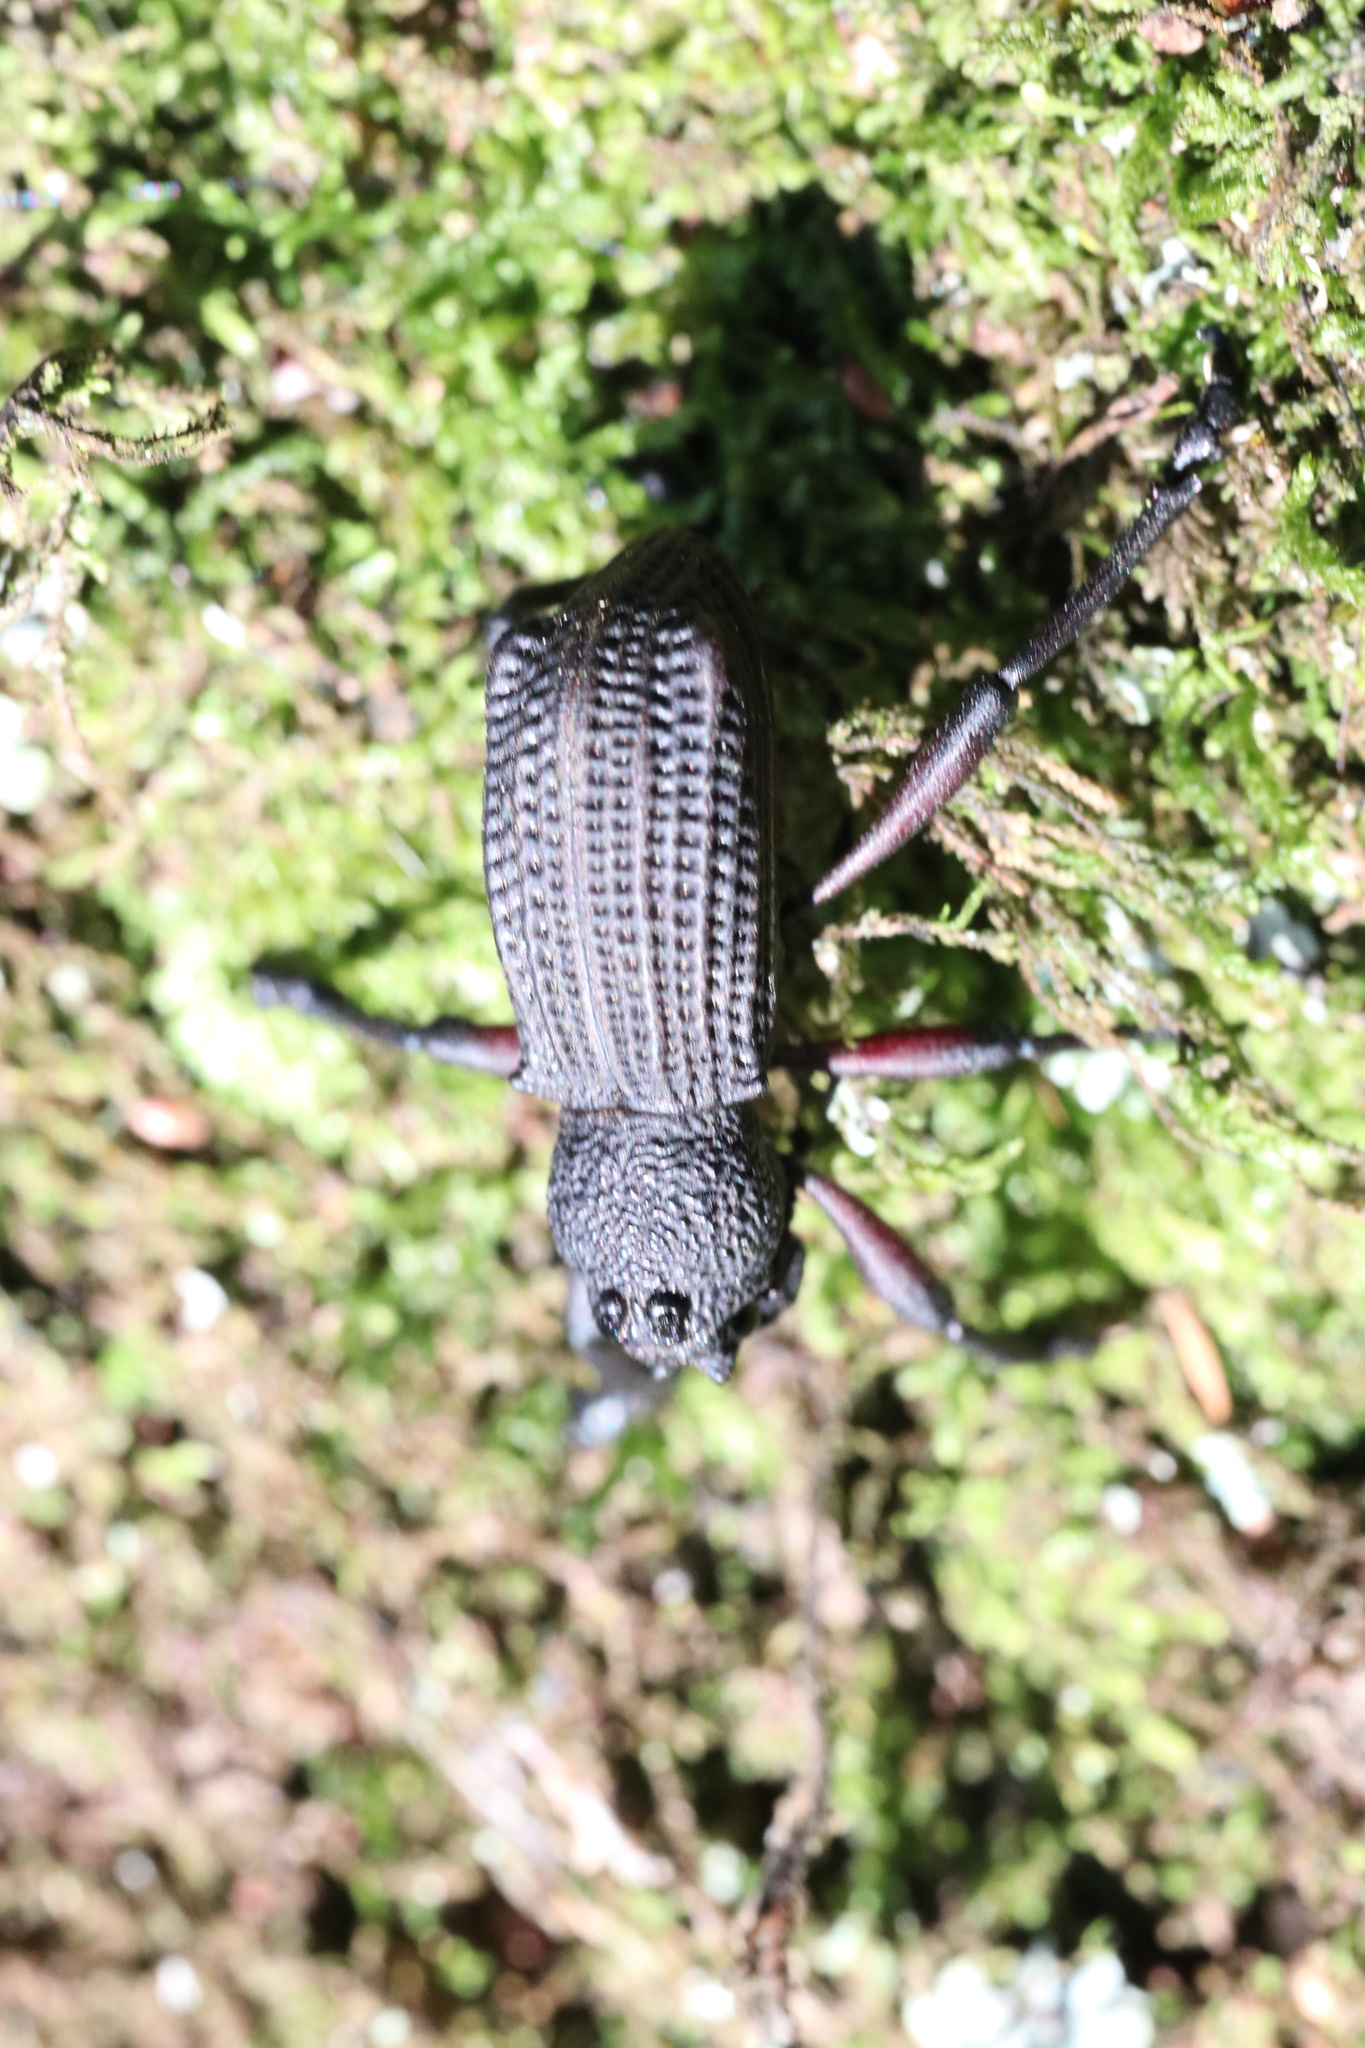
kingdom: Animalia
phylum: Arthropoda
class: Insecta
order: Coleoptera
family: Curculionidae
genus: Aegorhinus
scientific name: Aegorhinus
